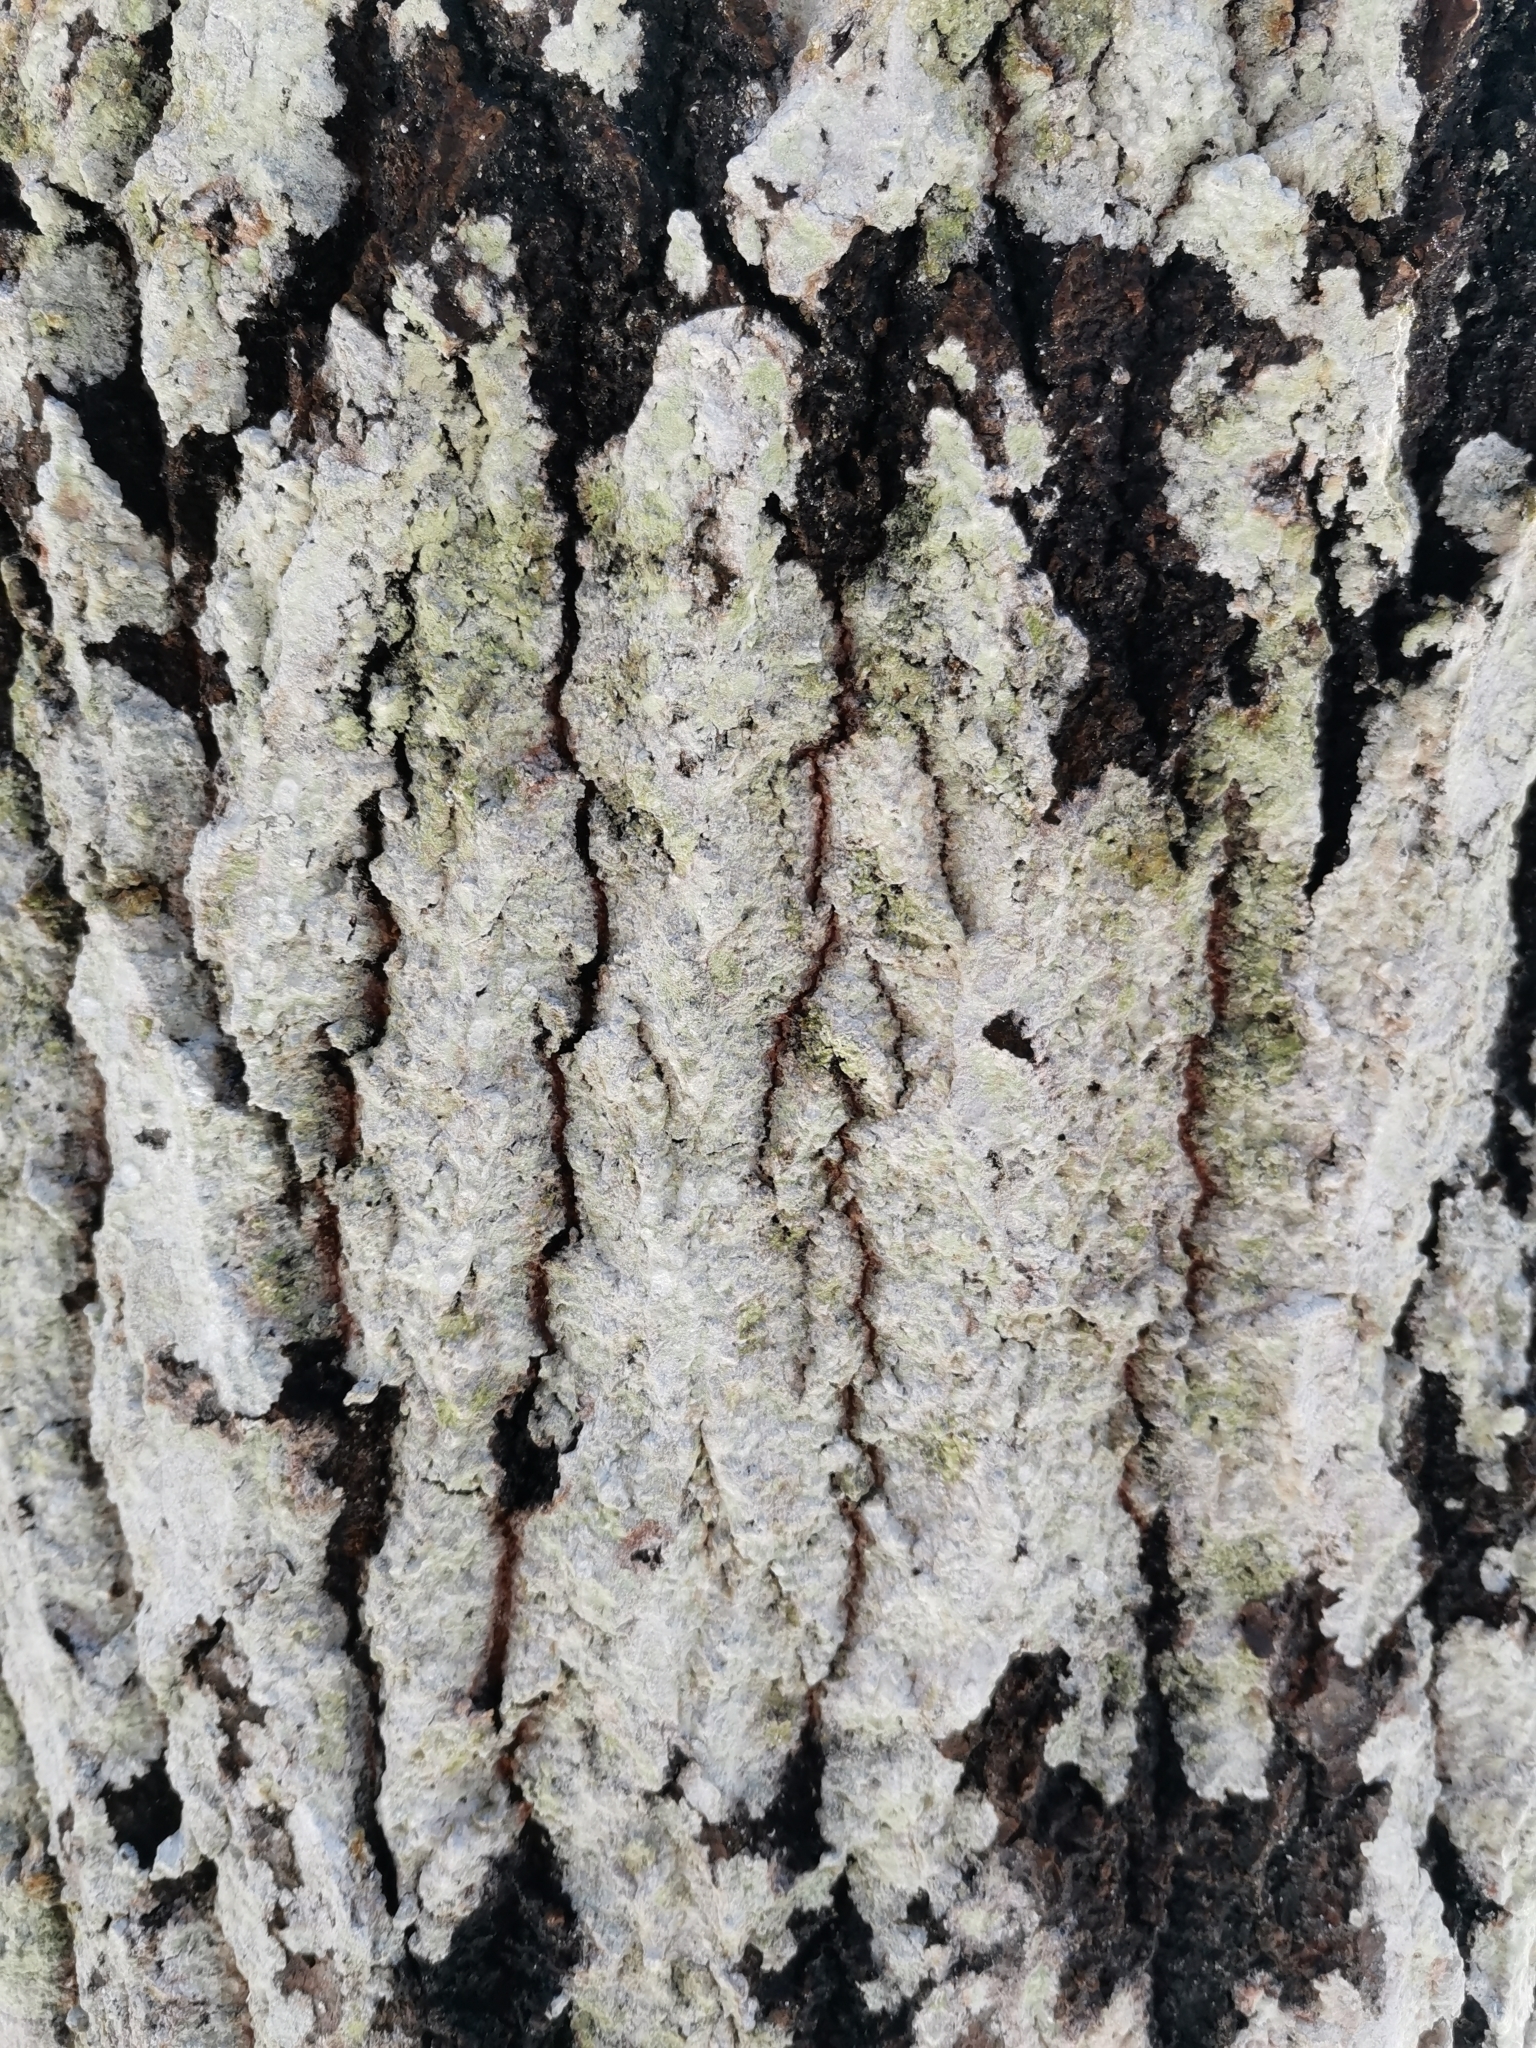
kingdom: Fungi
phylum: Ascomycota
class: Lecanoromycetes
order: Ostropales
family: Phlyctidaceae
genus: Phlyctis
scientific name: Phlyctis argena
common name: Whitewash lichen
